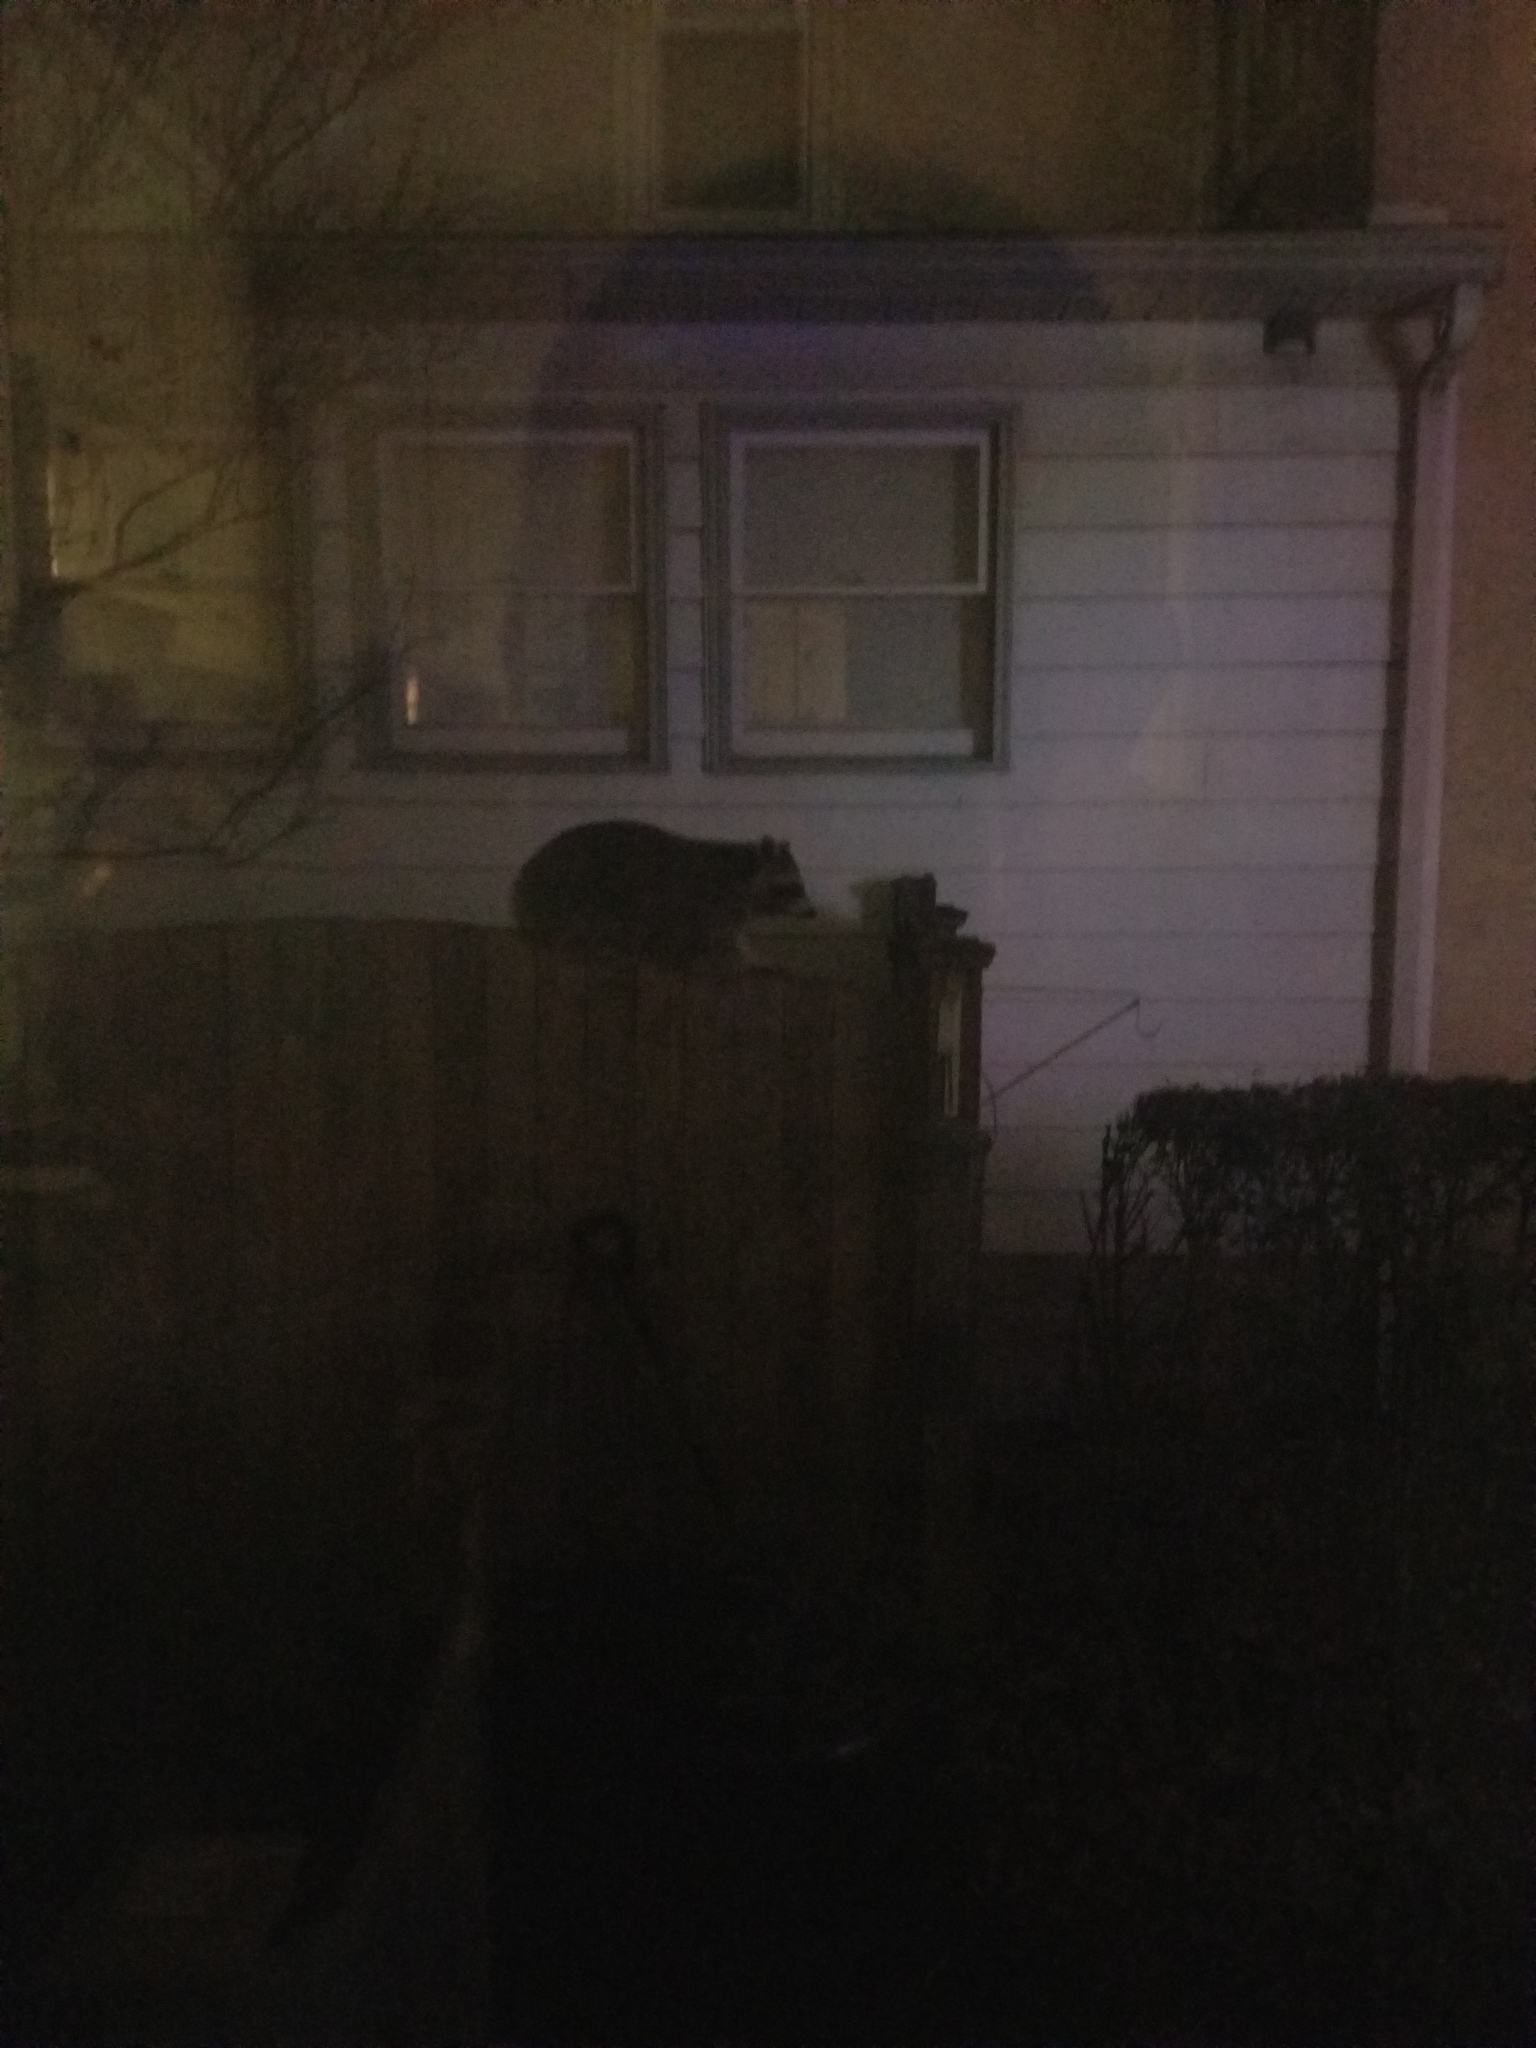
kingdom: Animalia
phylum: Chordata
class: Mammalia
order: Carnivora
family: Procyonidae
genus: Procyon
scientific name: Procyon lotor
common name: Raccoon
